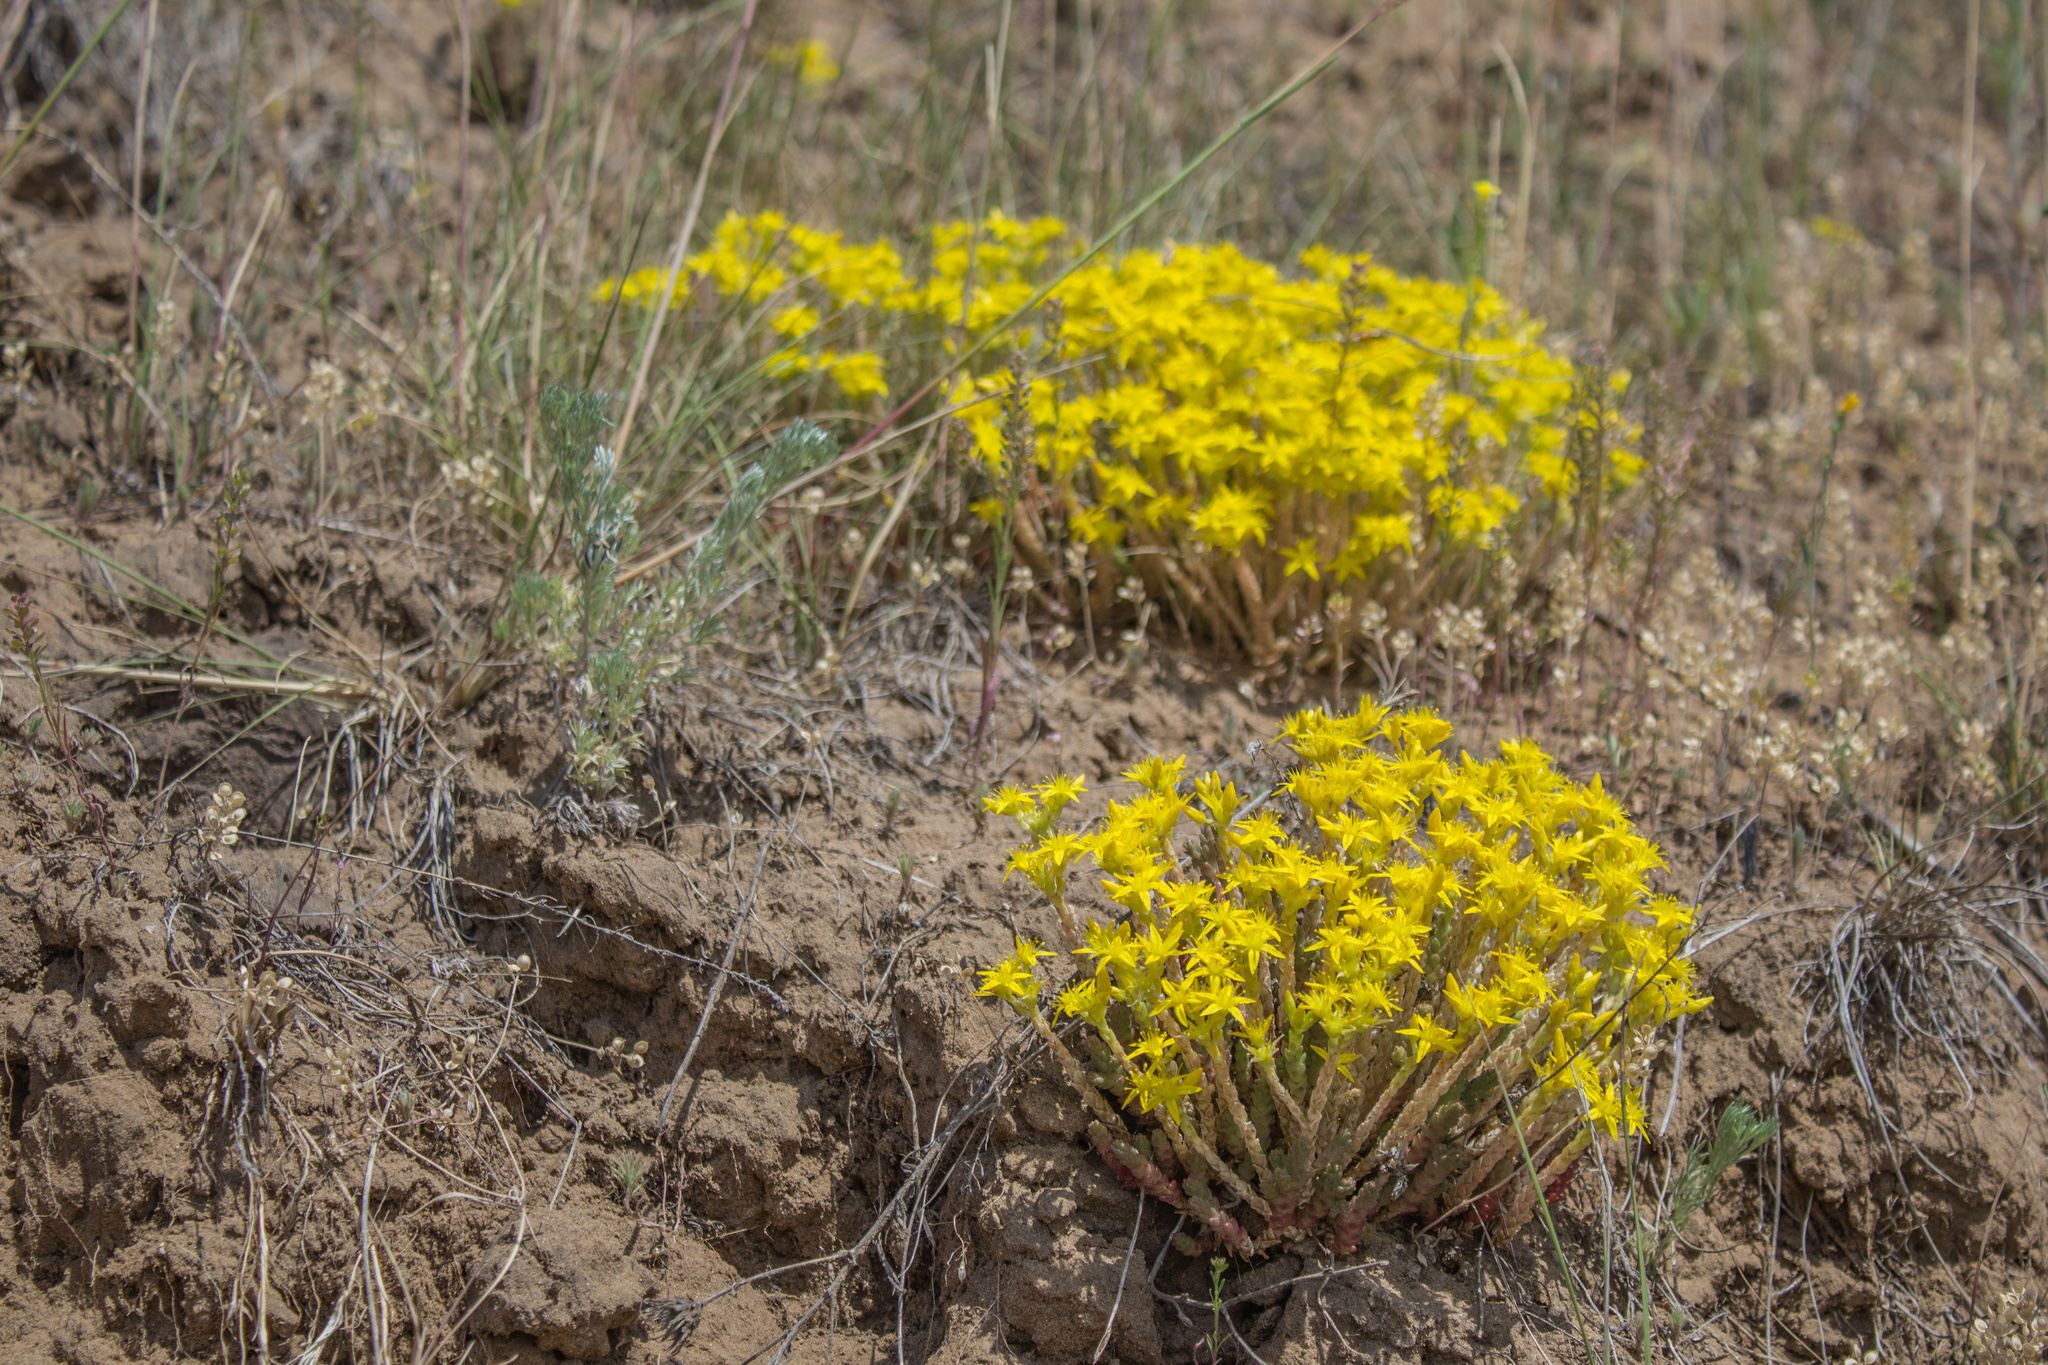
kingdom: Plantae
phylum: Tracheophyta
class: Magnoliopsida
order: Saxifragales
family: Crassulaceae
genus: Sedum
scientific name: Sedum acre
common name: Biting stonecrop
